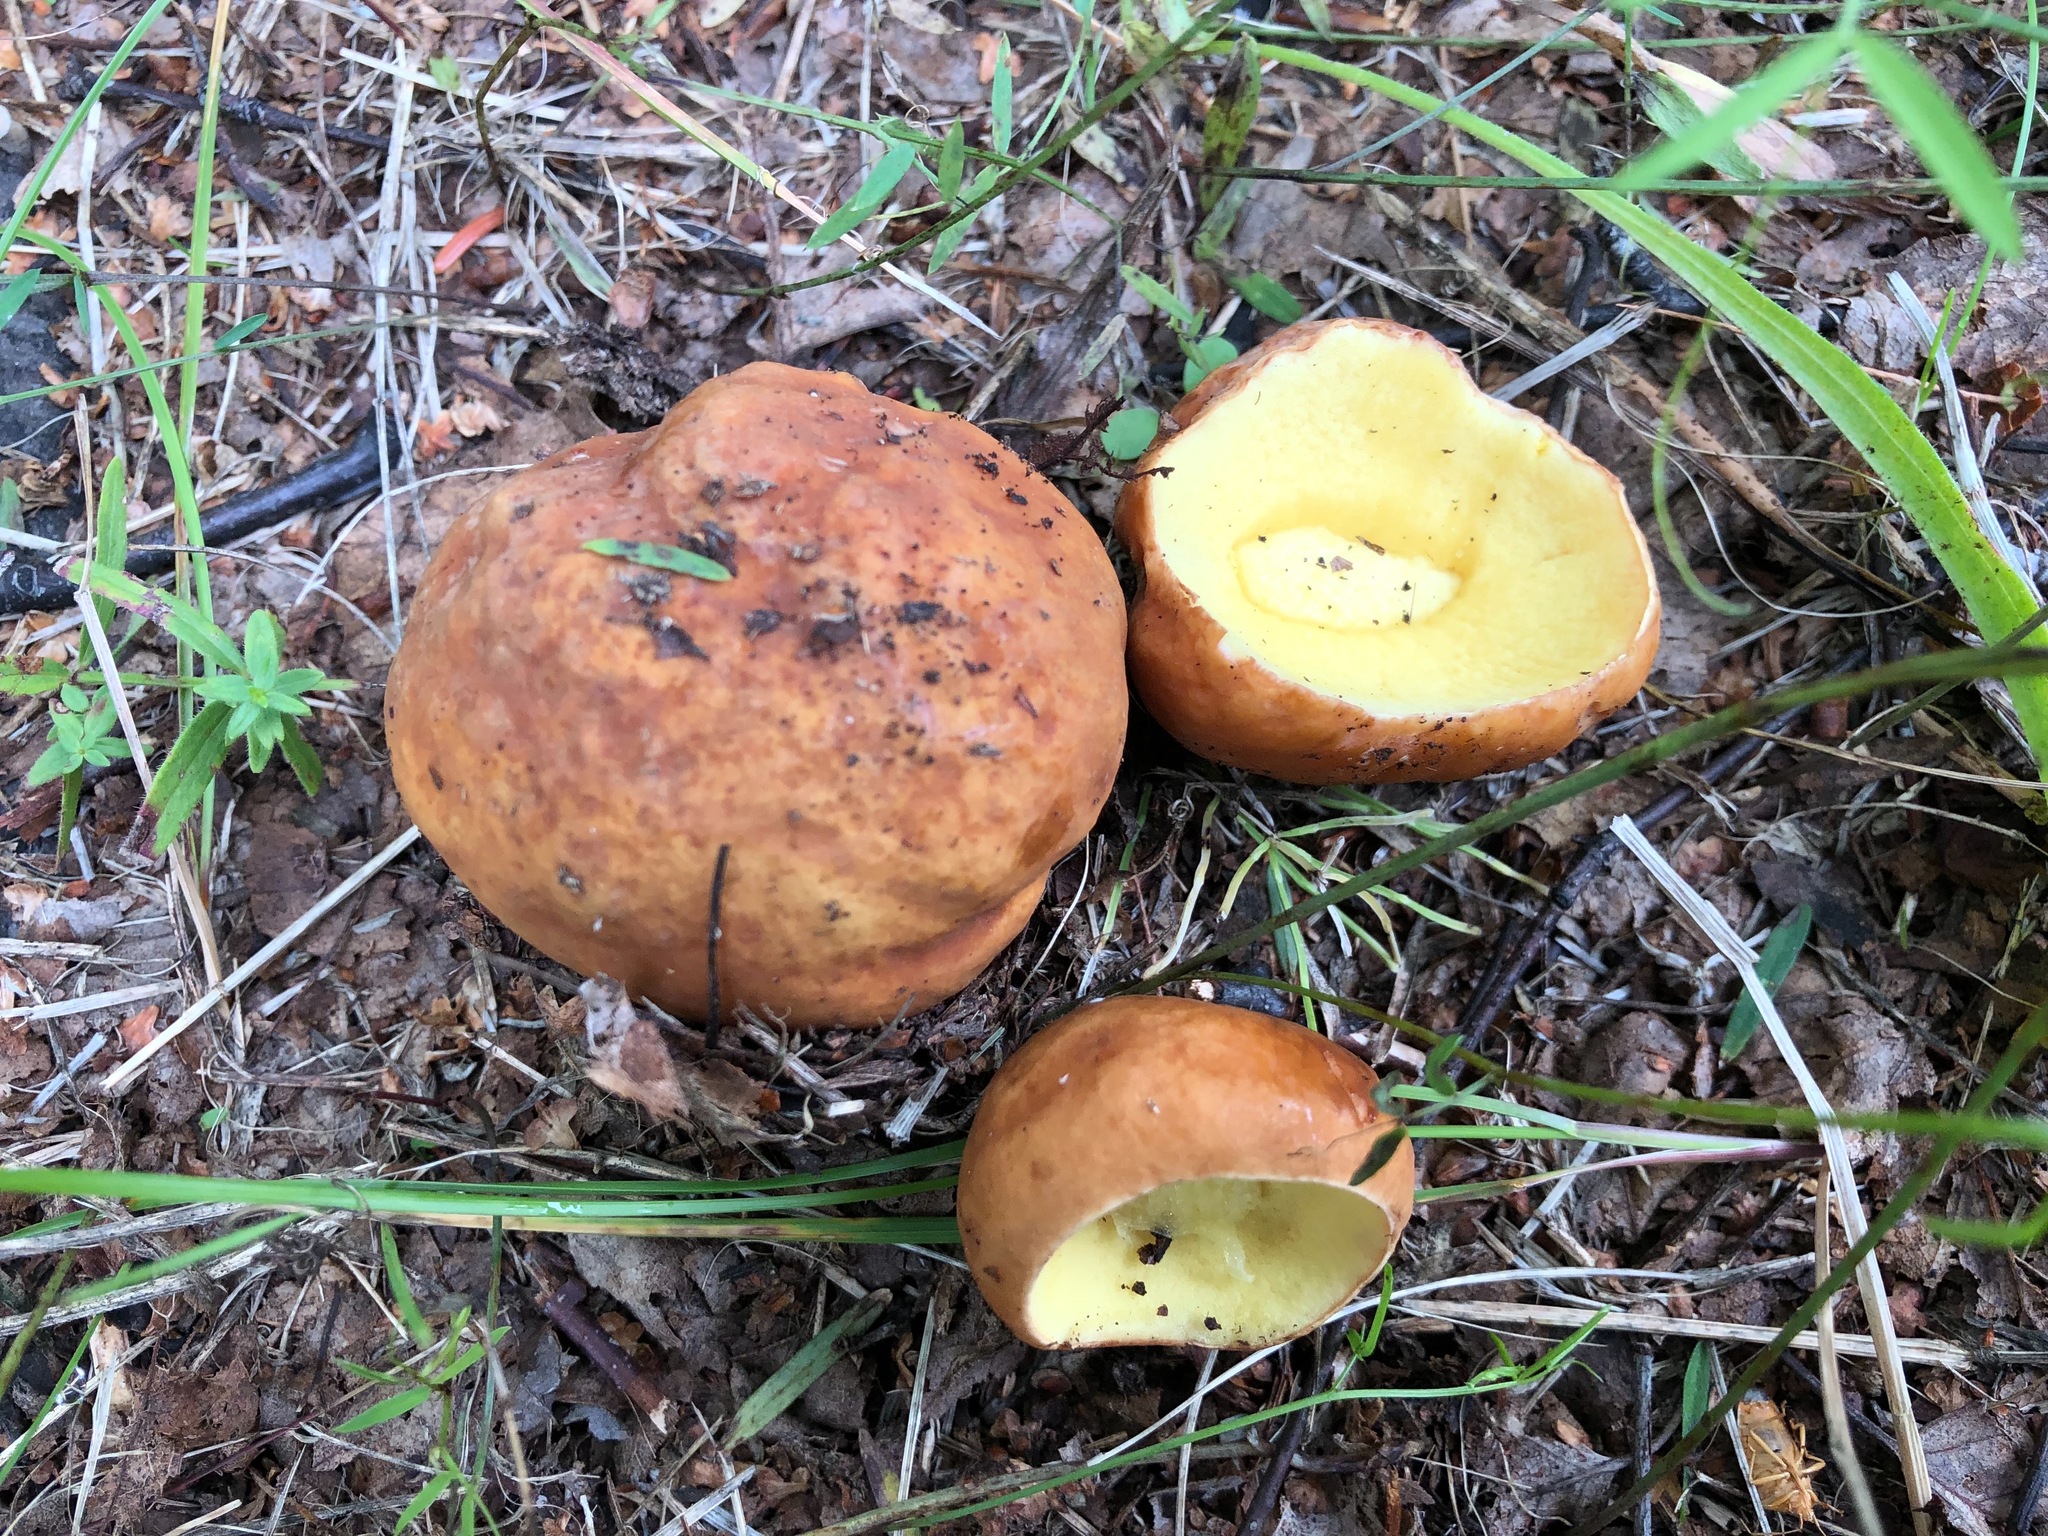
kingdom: Fungi
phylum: Basidiomycota
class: Agaricomycetes
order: Boletales
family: Boletaceae
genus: Hemileccinum
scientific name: Hemileccinum subglabripes
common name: Smoothish-stemmed bolete
